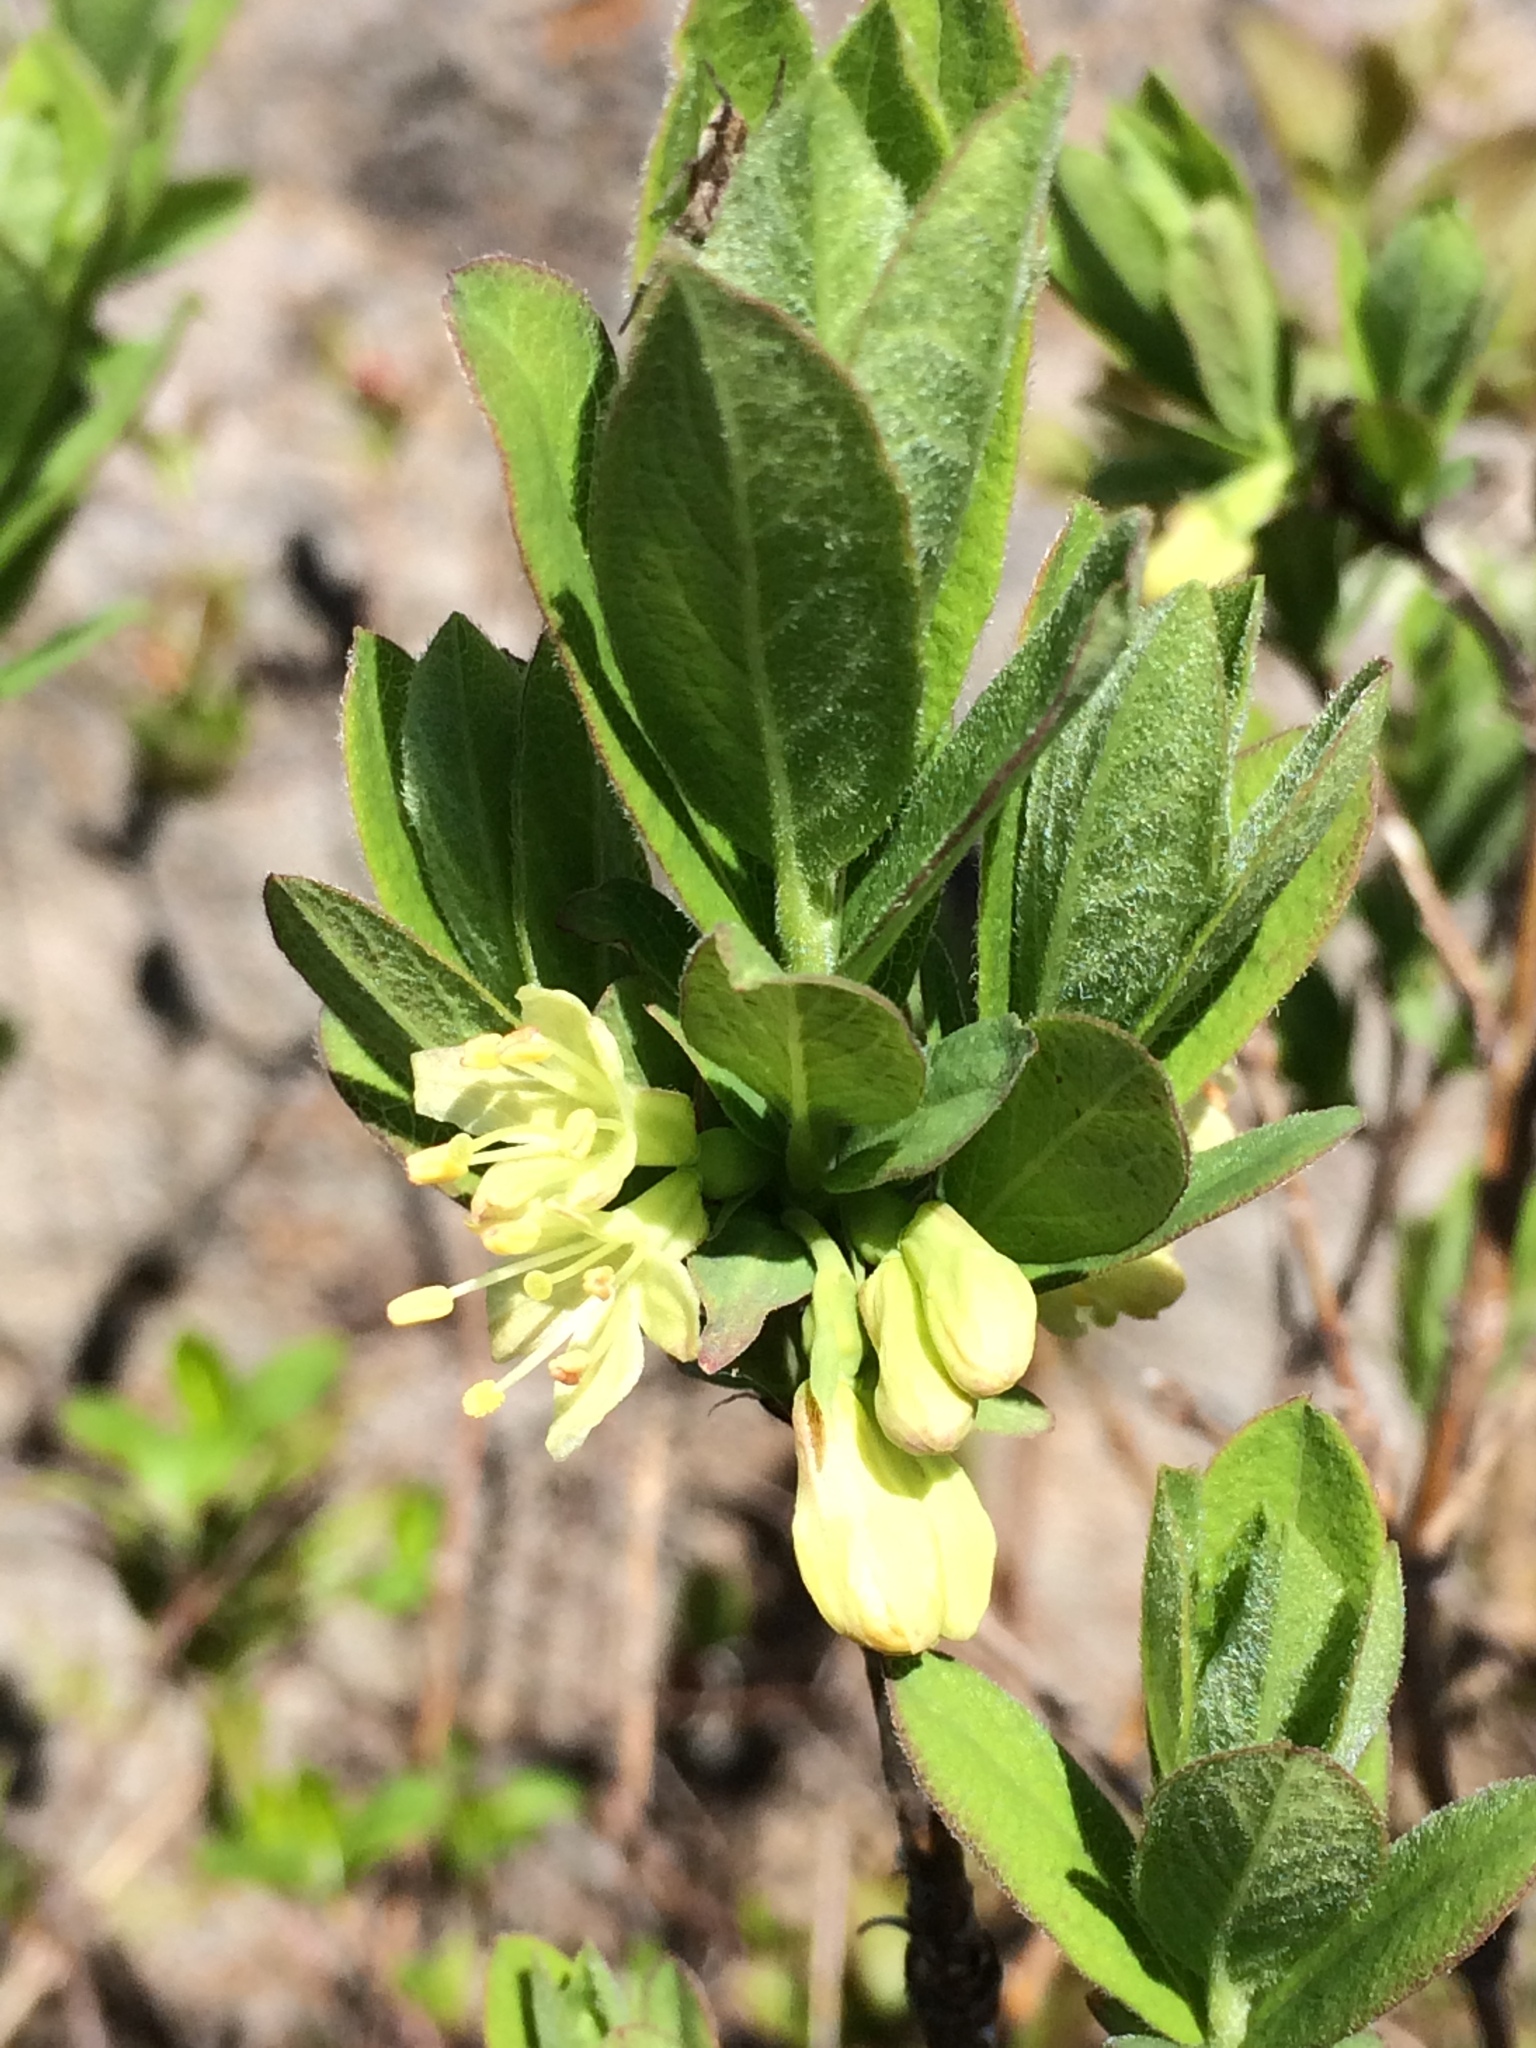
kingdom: Plantae
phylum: Tracheophyta
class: Magnoliopsida
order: Dipsacales
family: Caprifoliaceae
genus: Lonicera
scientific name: Lonicera villosa
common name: Mountain fly-honeysuckle
